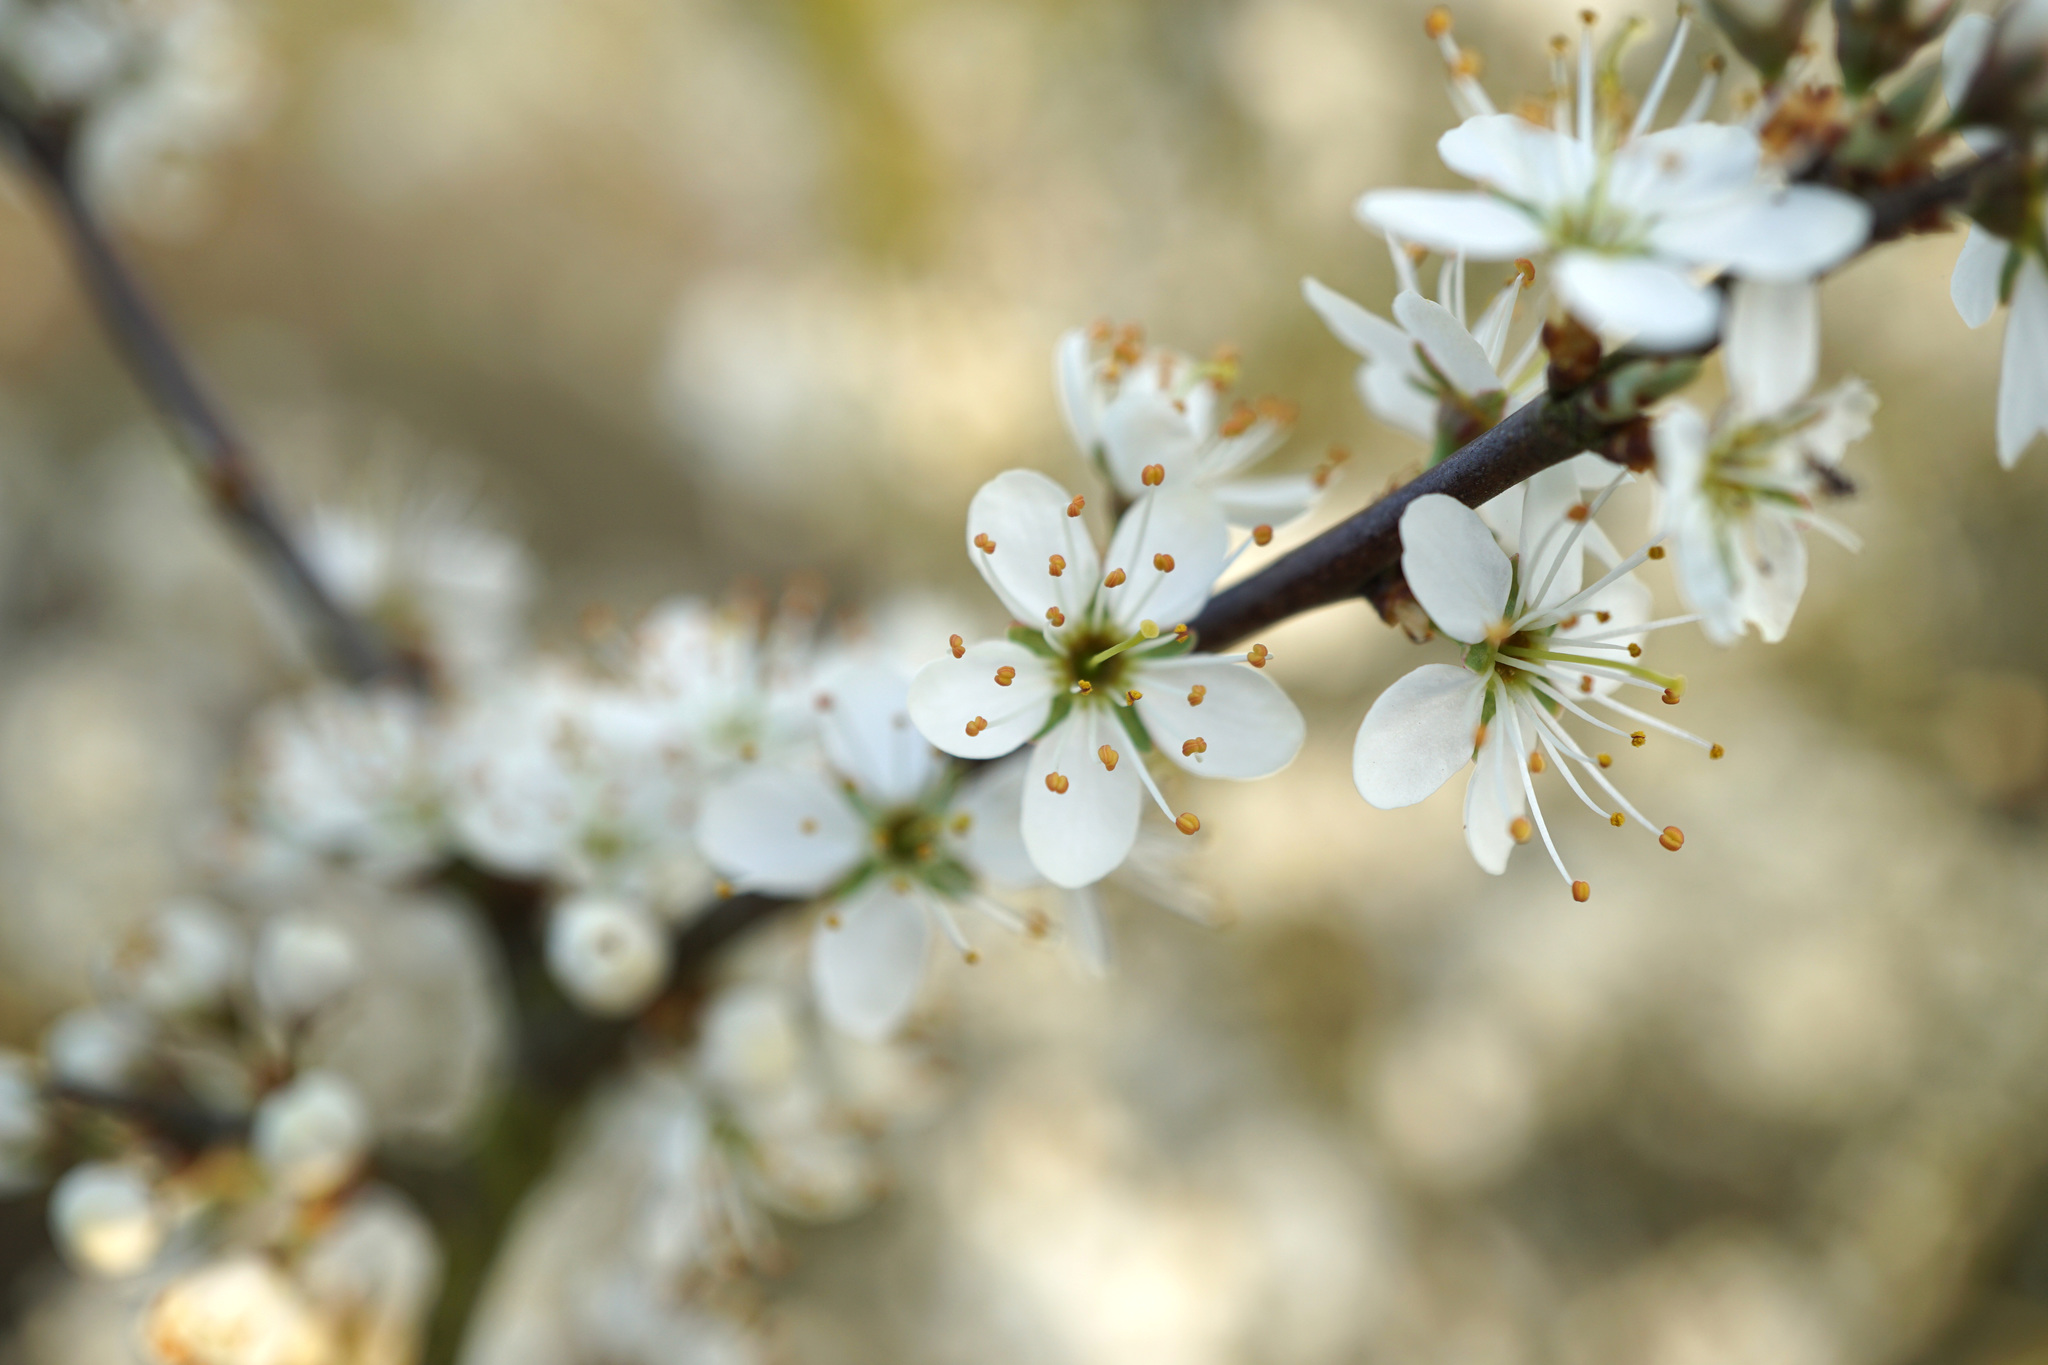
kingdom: Plantae
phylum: Tracheophyta
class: Magnoliopsida
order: Rosales
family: Rosaceae
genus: Prunus
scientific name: Prunus spinosa
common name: Blackthorn
